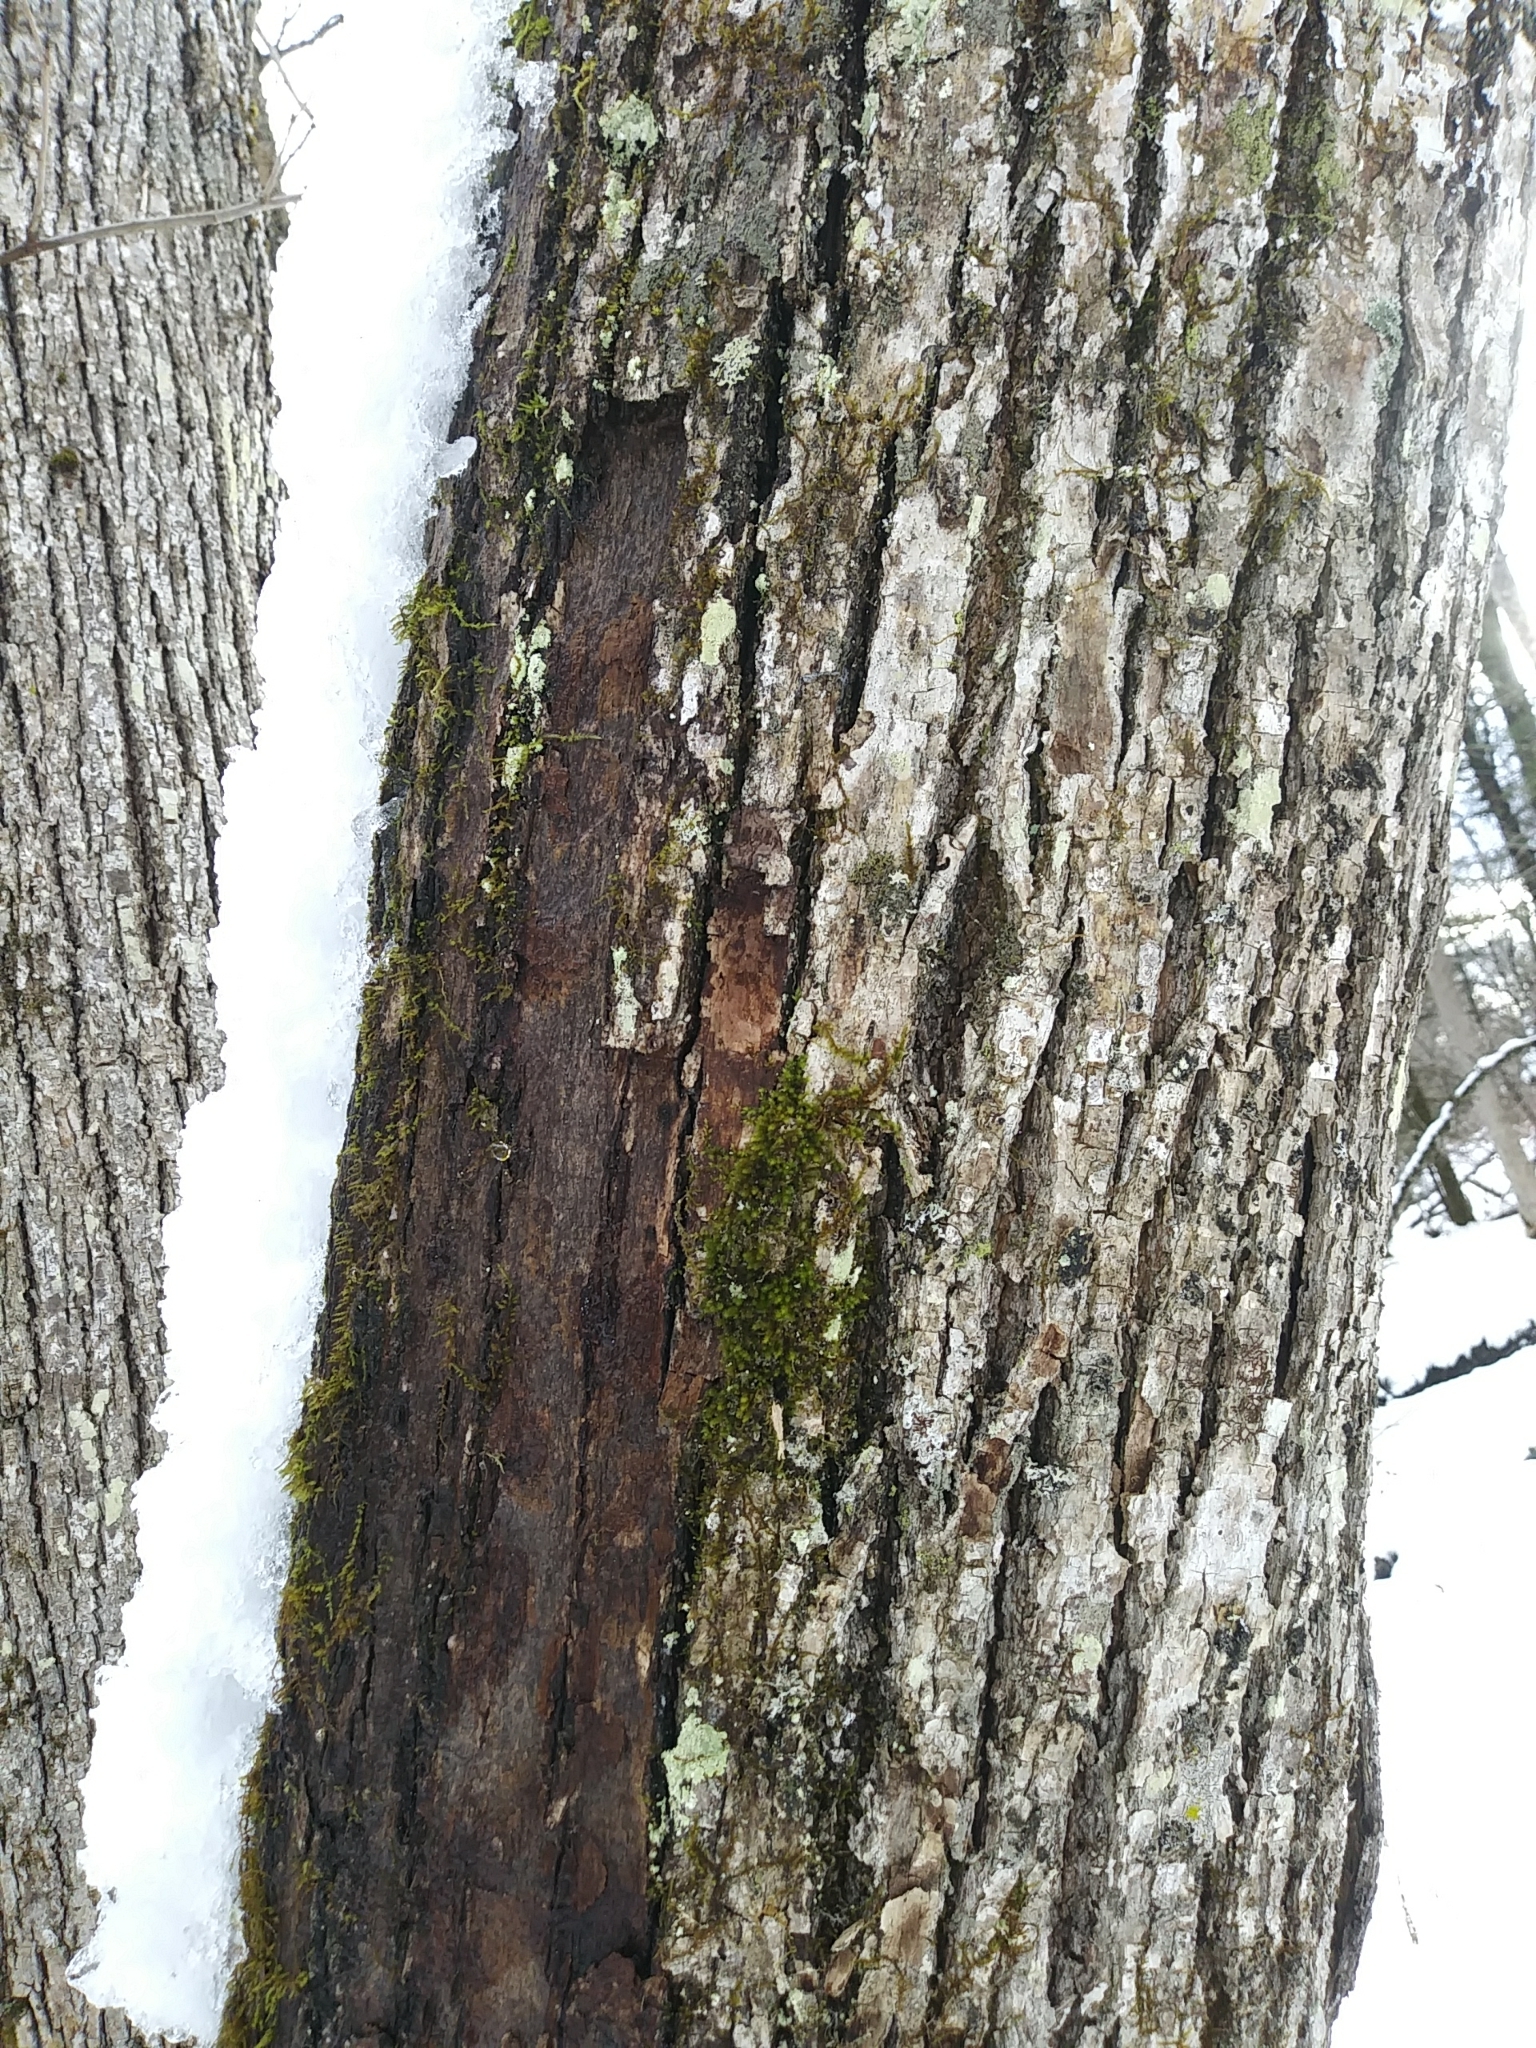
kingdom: Plantae
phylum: Tracheophyta
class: Magnoliopsida
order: Malvales
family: Malvaceae
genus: Tilia
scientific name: Tilia americana
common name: Basswood
